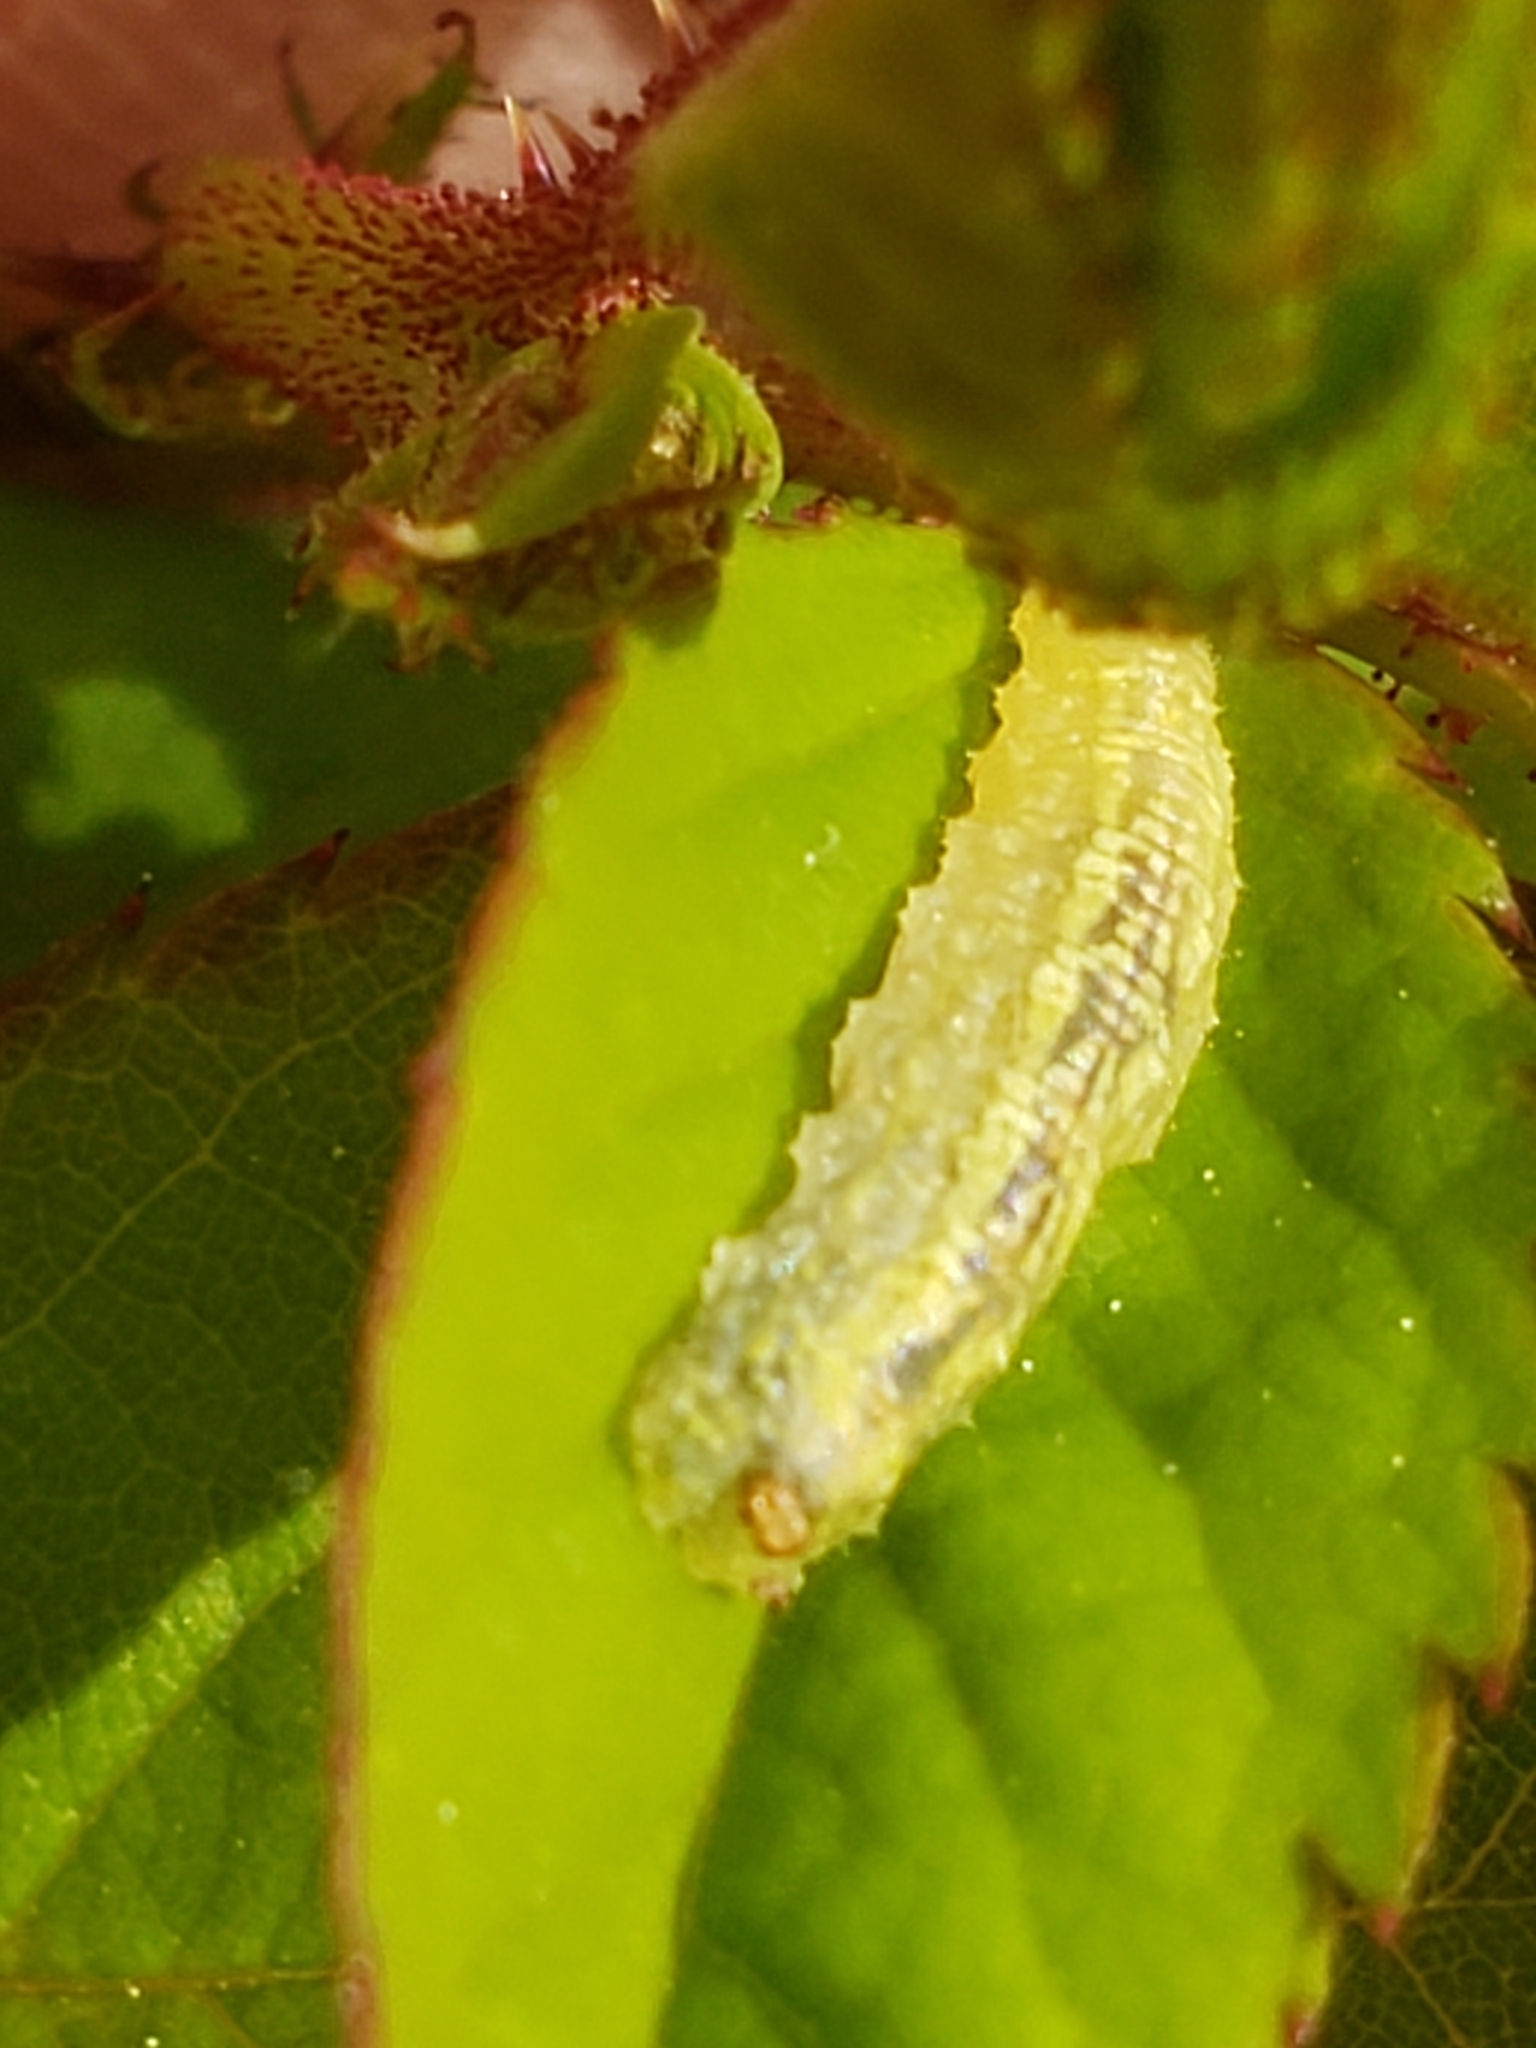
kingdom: Animalia
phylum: Arthropoda
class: Insecta
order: Diptera
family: Syrphidae
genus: Syrphus
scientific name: Syrphus
